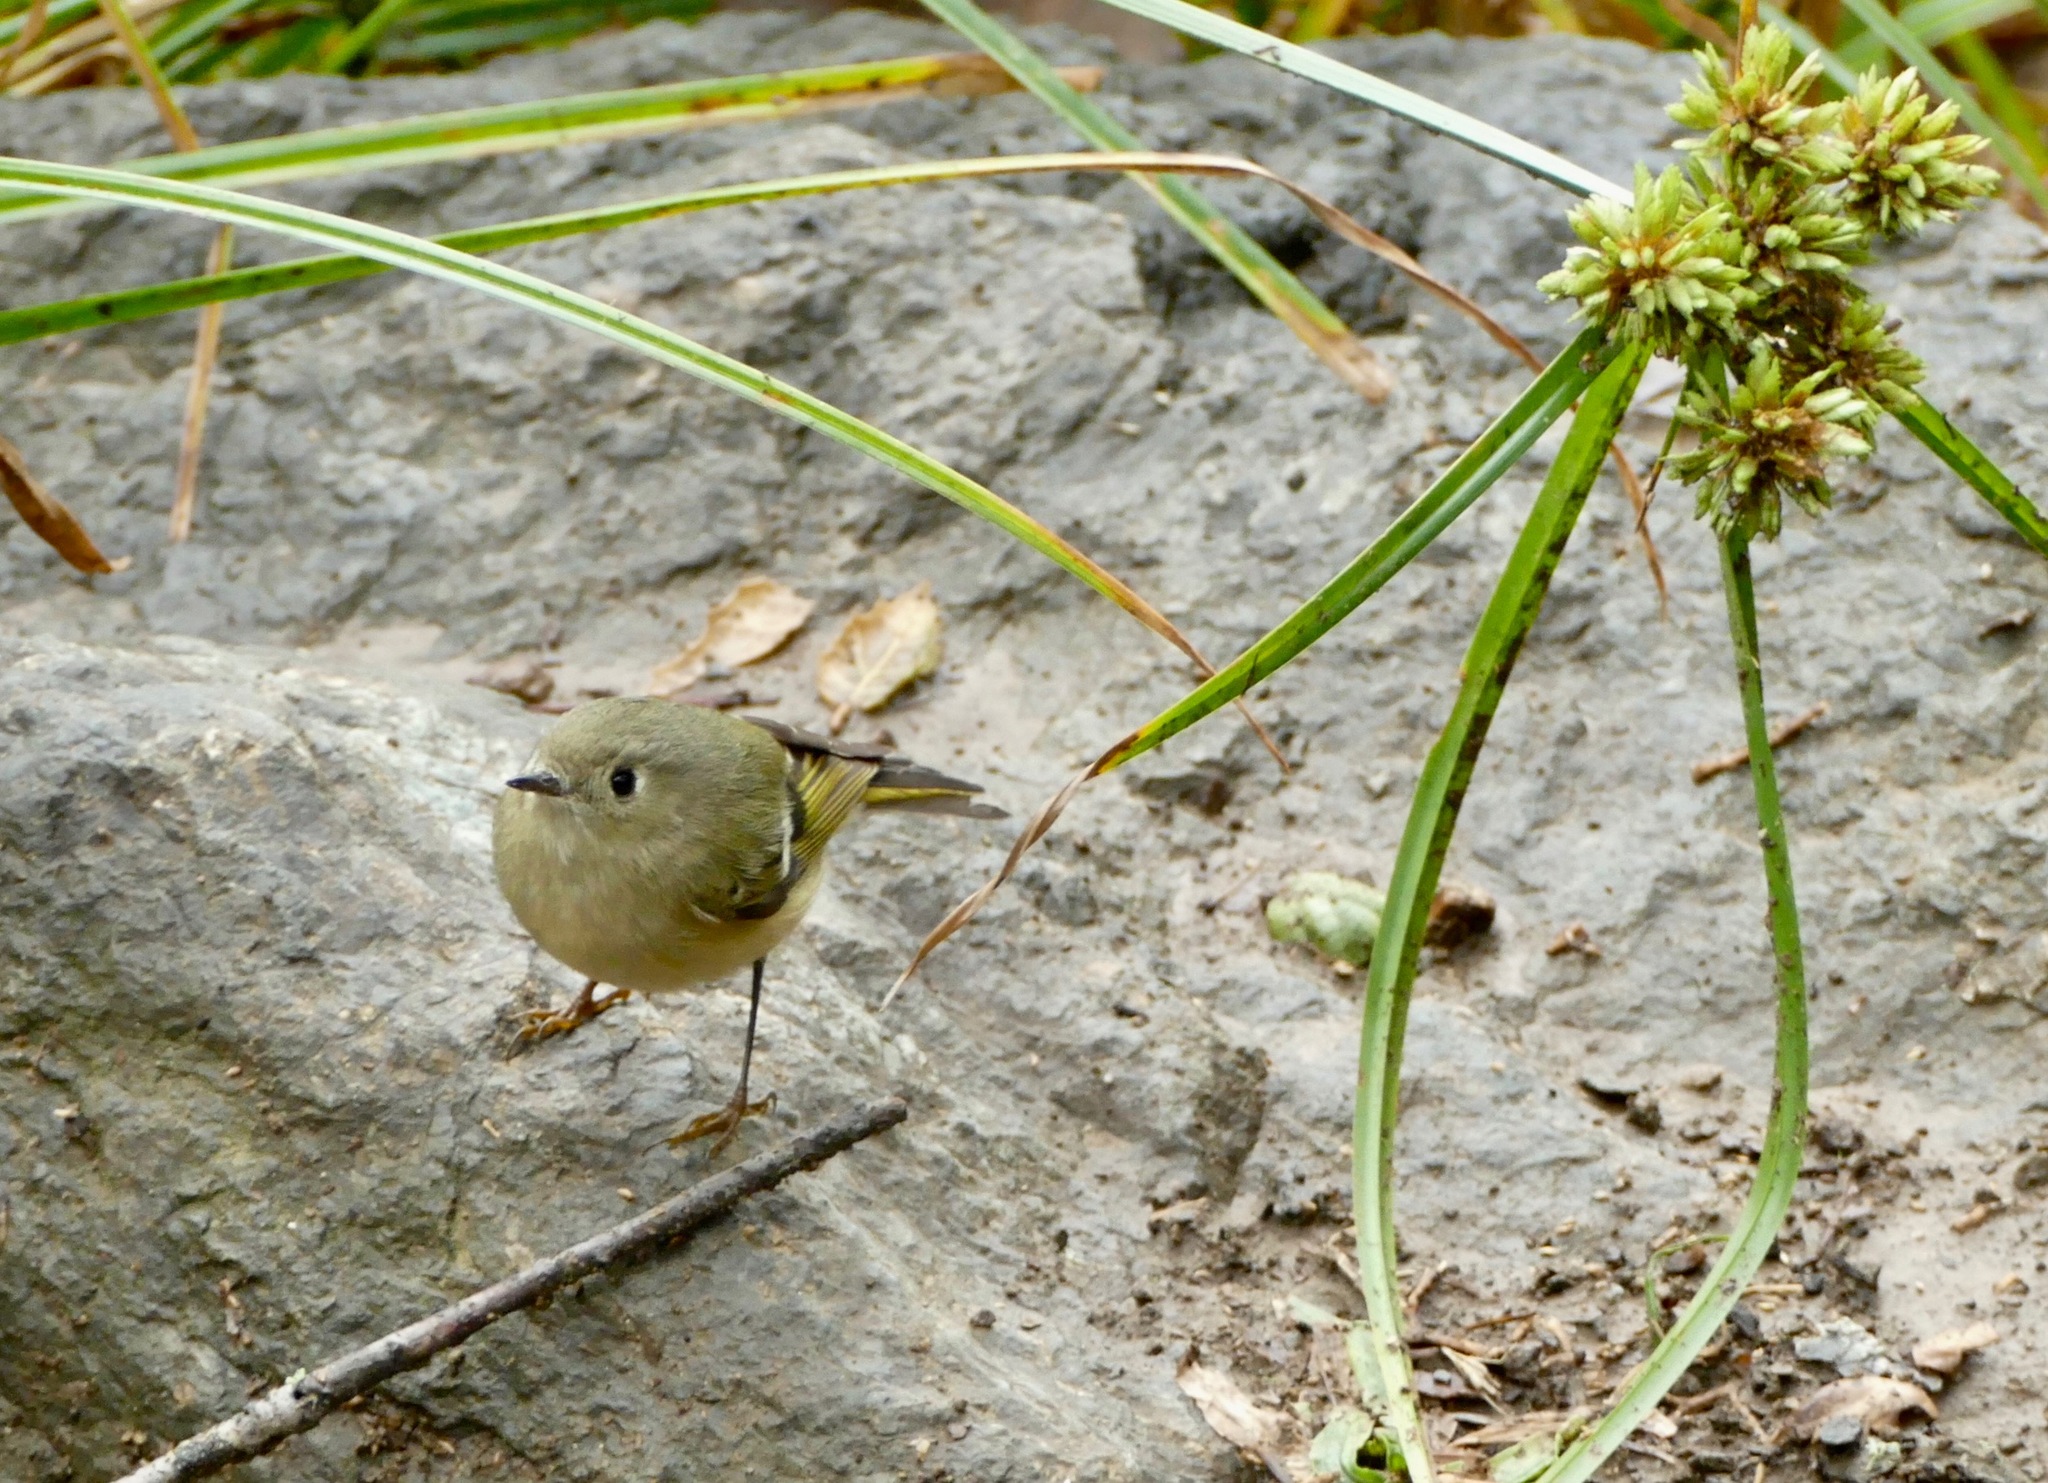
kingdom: Animalia
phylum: Chordata
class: Aves
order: Passeriformes
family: Regulidae
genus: Regulus
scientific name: Regulus calendula
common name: Ruby-crowned kinglet
